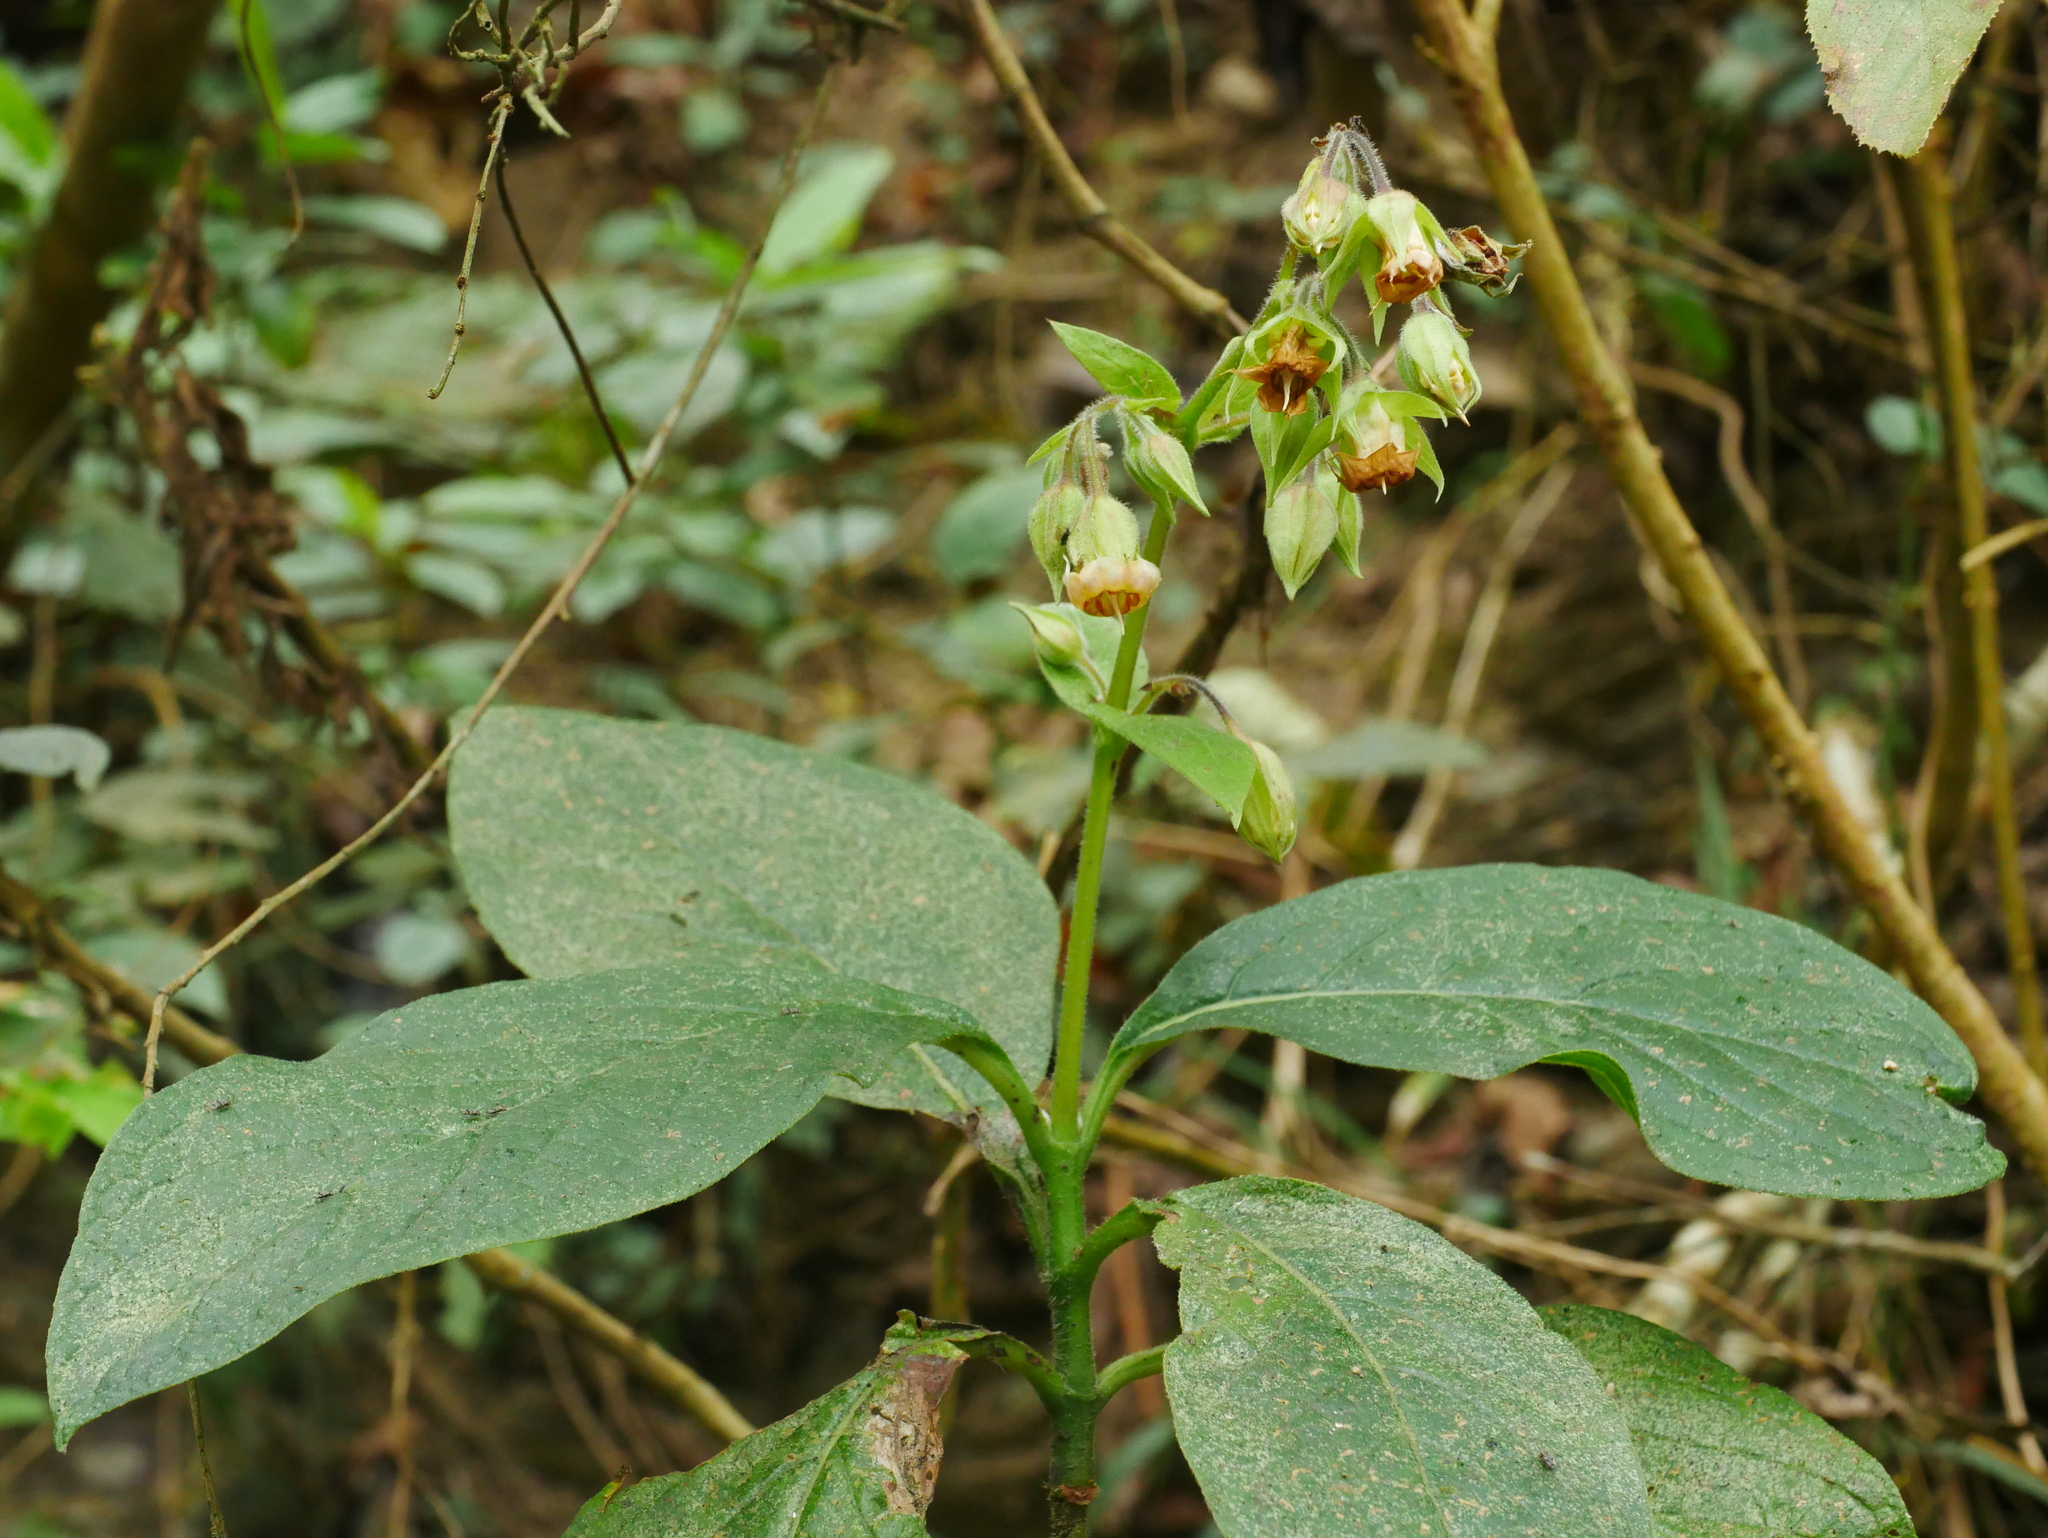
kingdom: Plantae
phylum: Tracheophyta
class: Magnoliopsida
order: Boraginales
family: Boraginaceae
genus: Trichodesma
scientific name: Trichodesma calycosum
